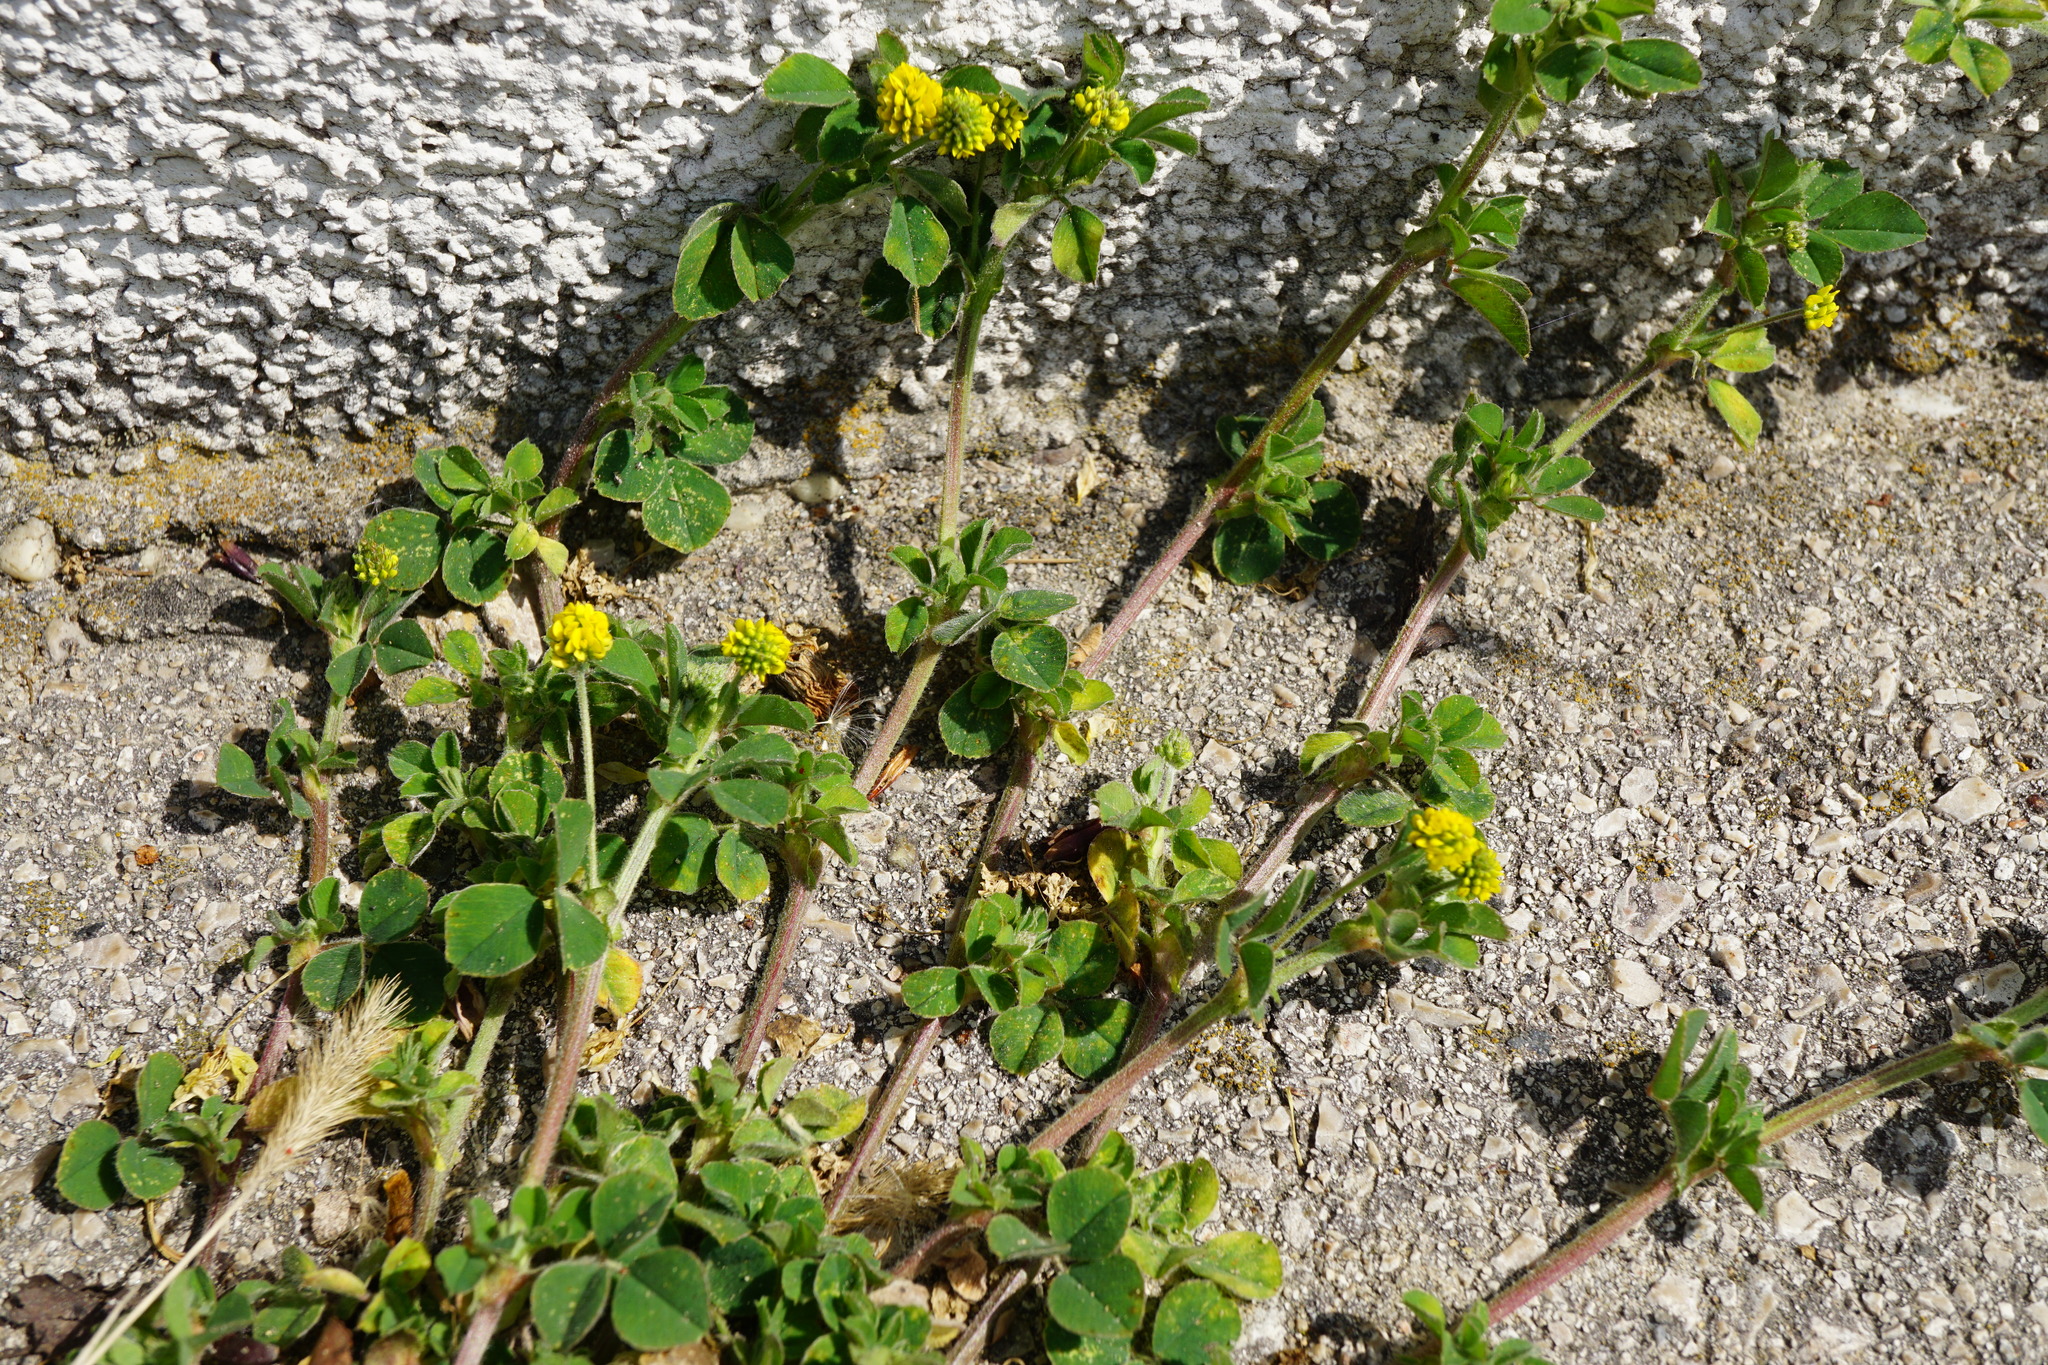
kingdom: Plantae
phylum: Tracheophyta
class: Magnoliopsida
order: Fabales
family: Fabaceae
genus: Medicago
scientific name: Medicago lupulina
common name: Black medick
